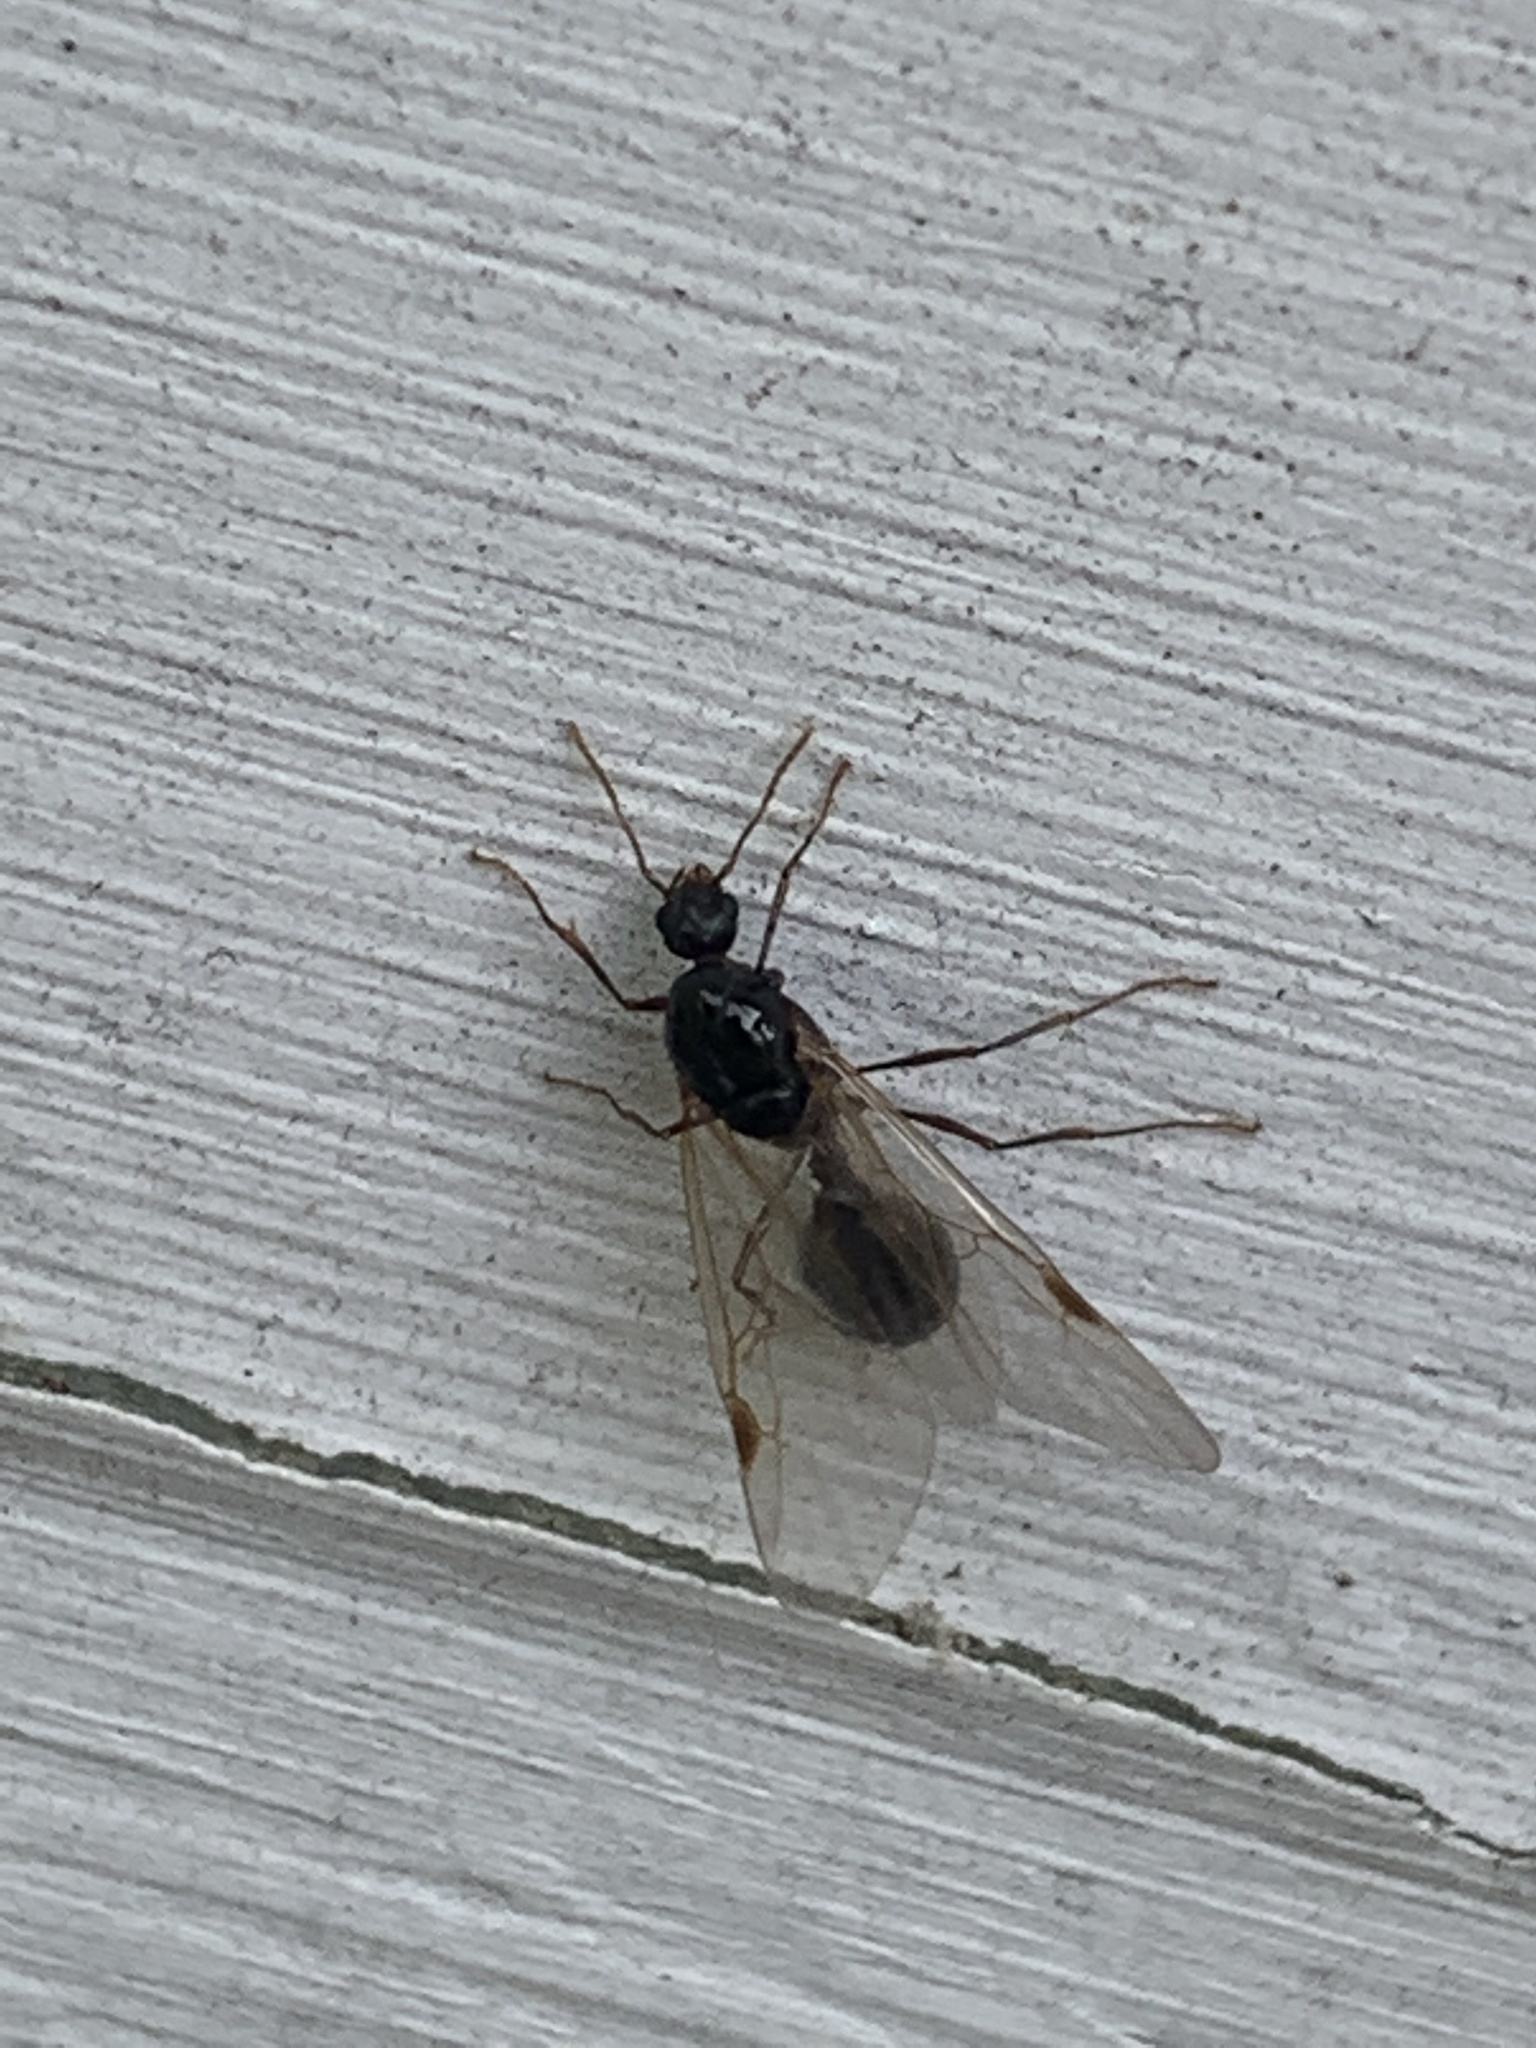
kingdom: Animalia
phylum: Arthropoda
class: Insecta
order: Hymenoptera
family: Formicidae
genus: Tetramorium
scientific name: Tetramorium immigrans
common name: Pavement ant
